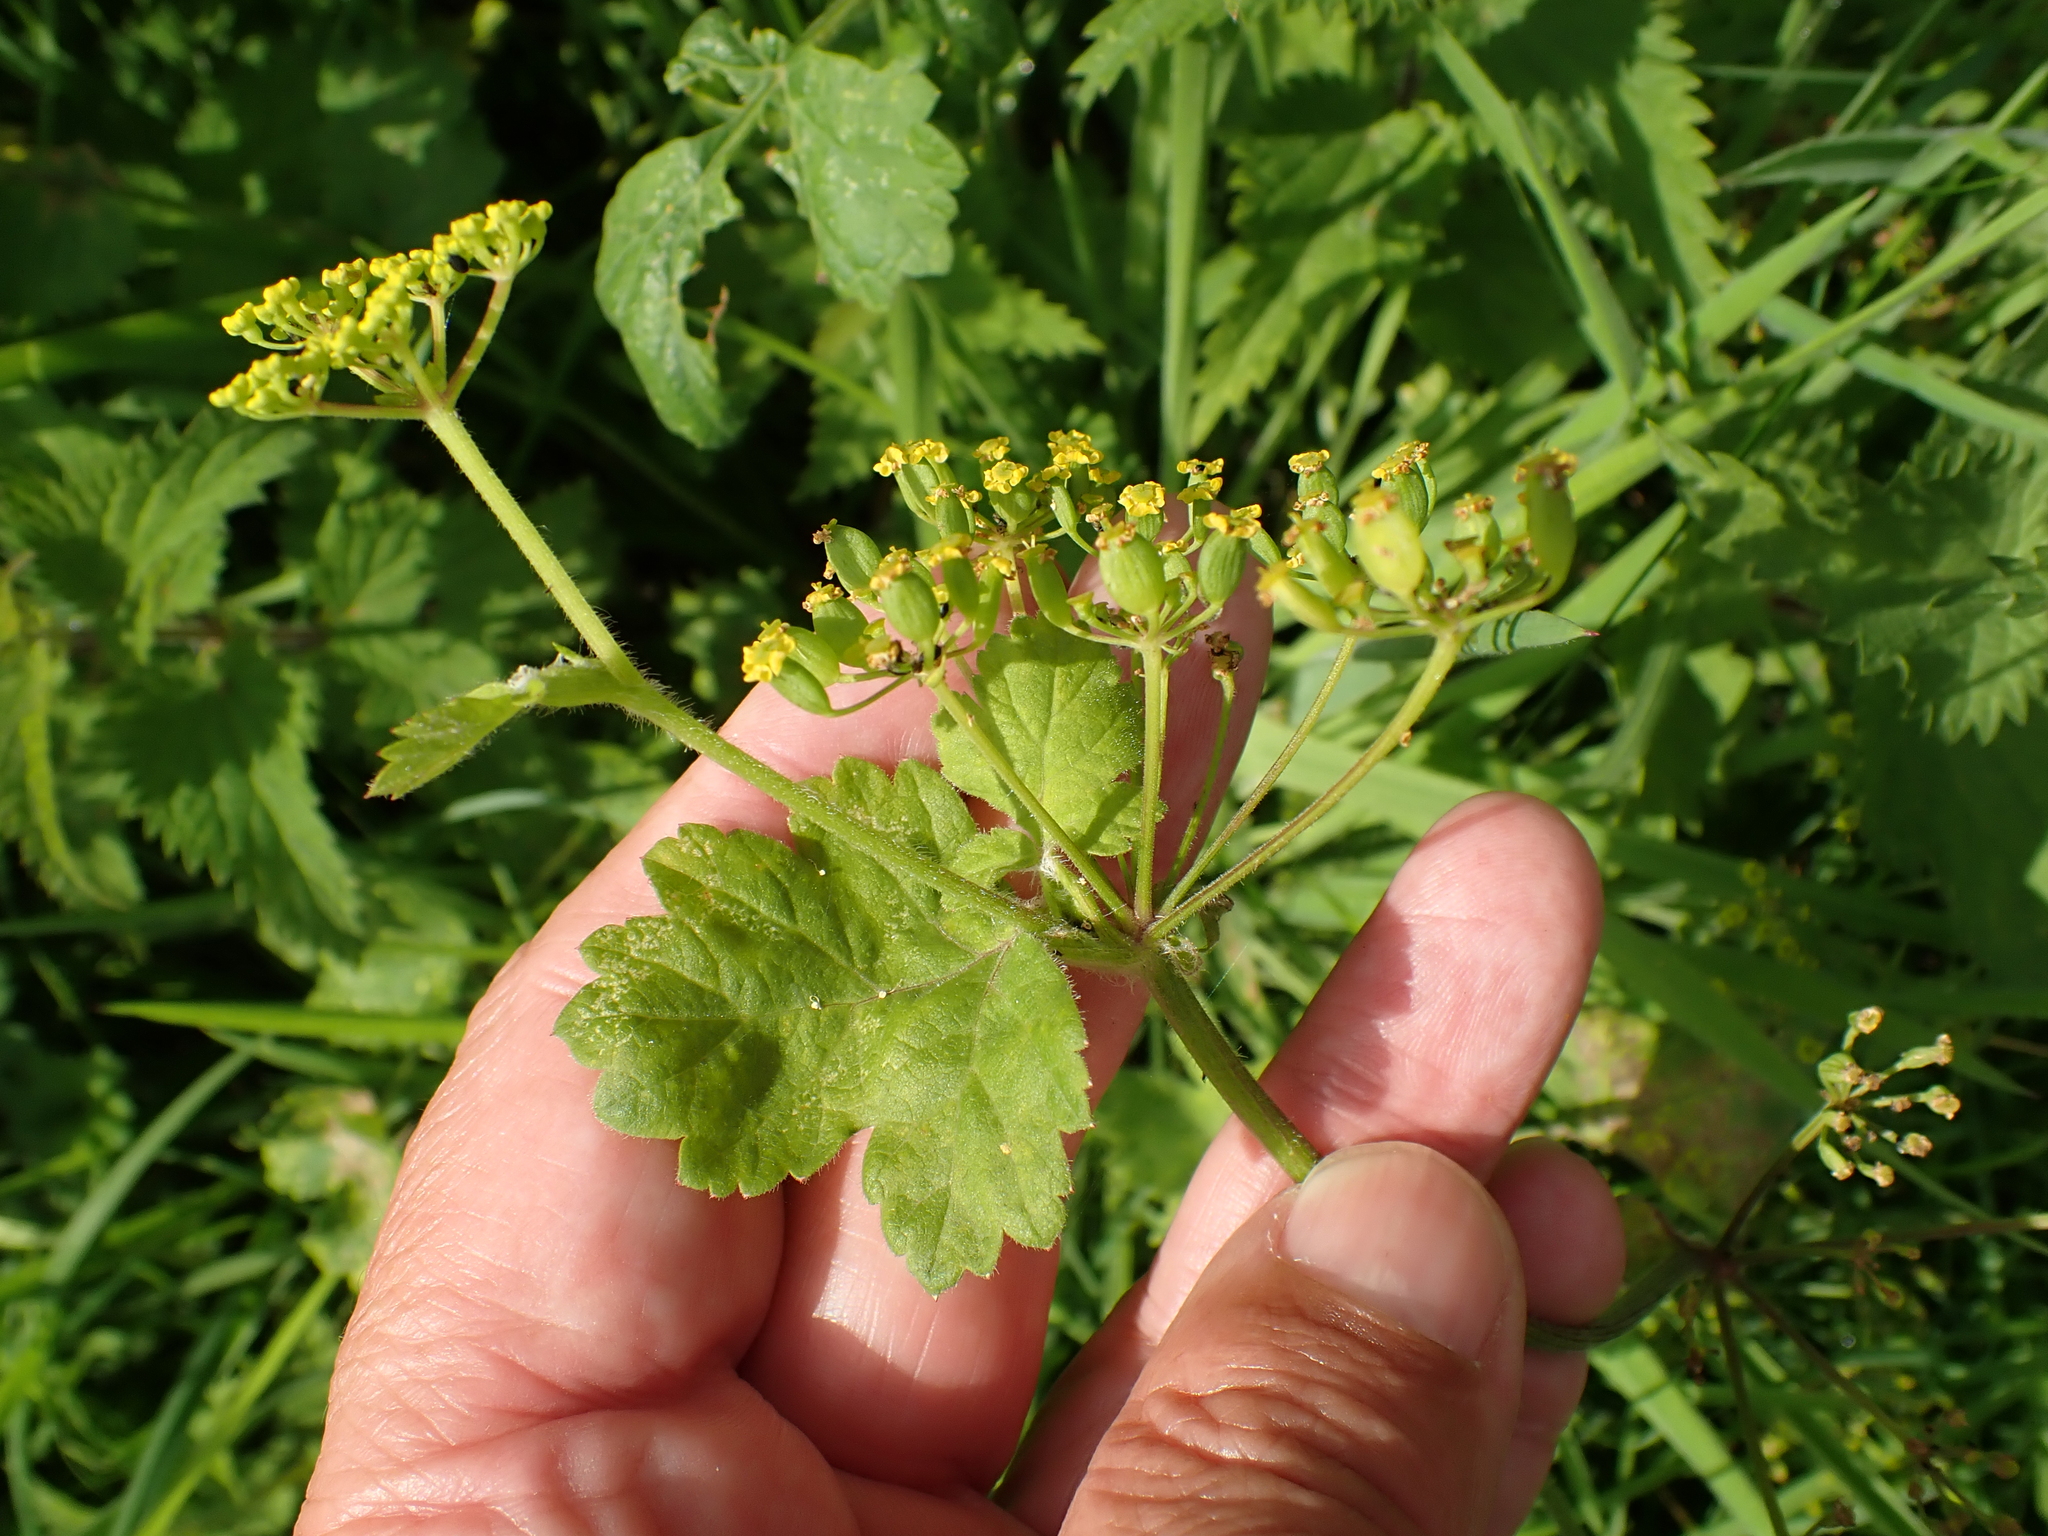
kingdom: Plantae
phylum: Tracheophyta
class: Magnoliopsida
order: Apiales
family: Apiaceae
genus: Pastinaca
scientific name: Pastinaca sativa
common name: Wild parsnip
